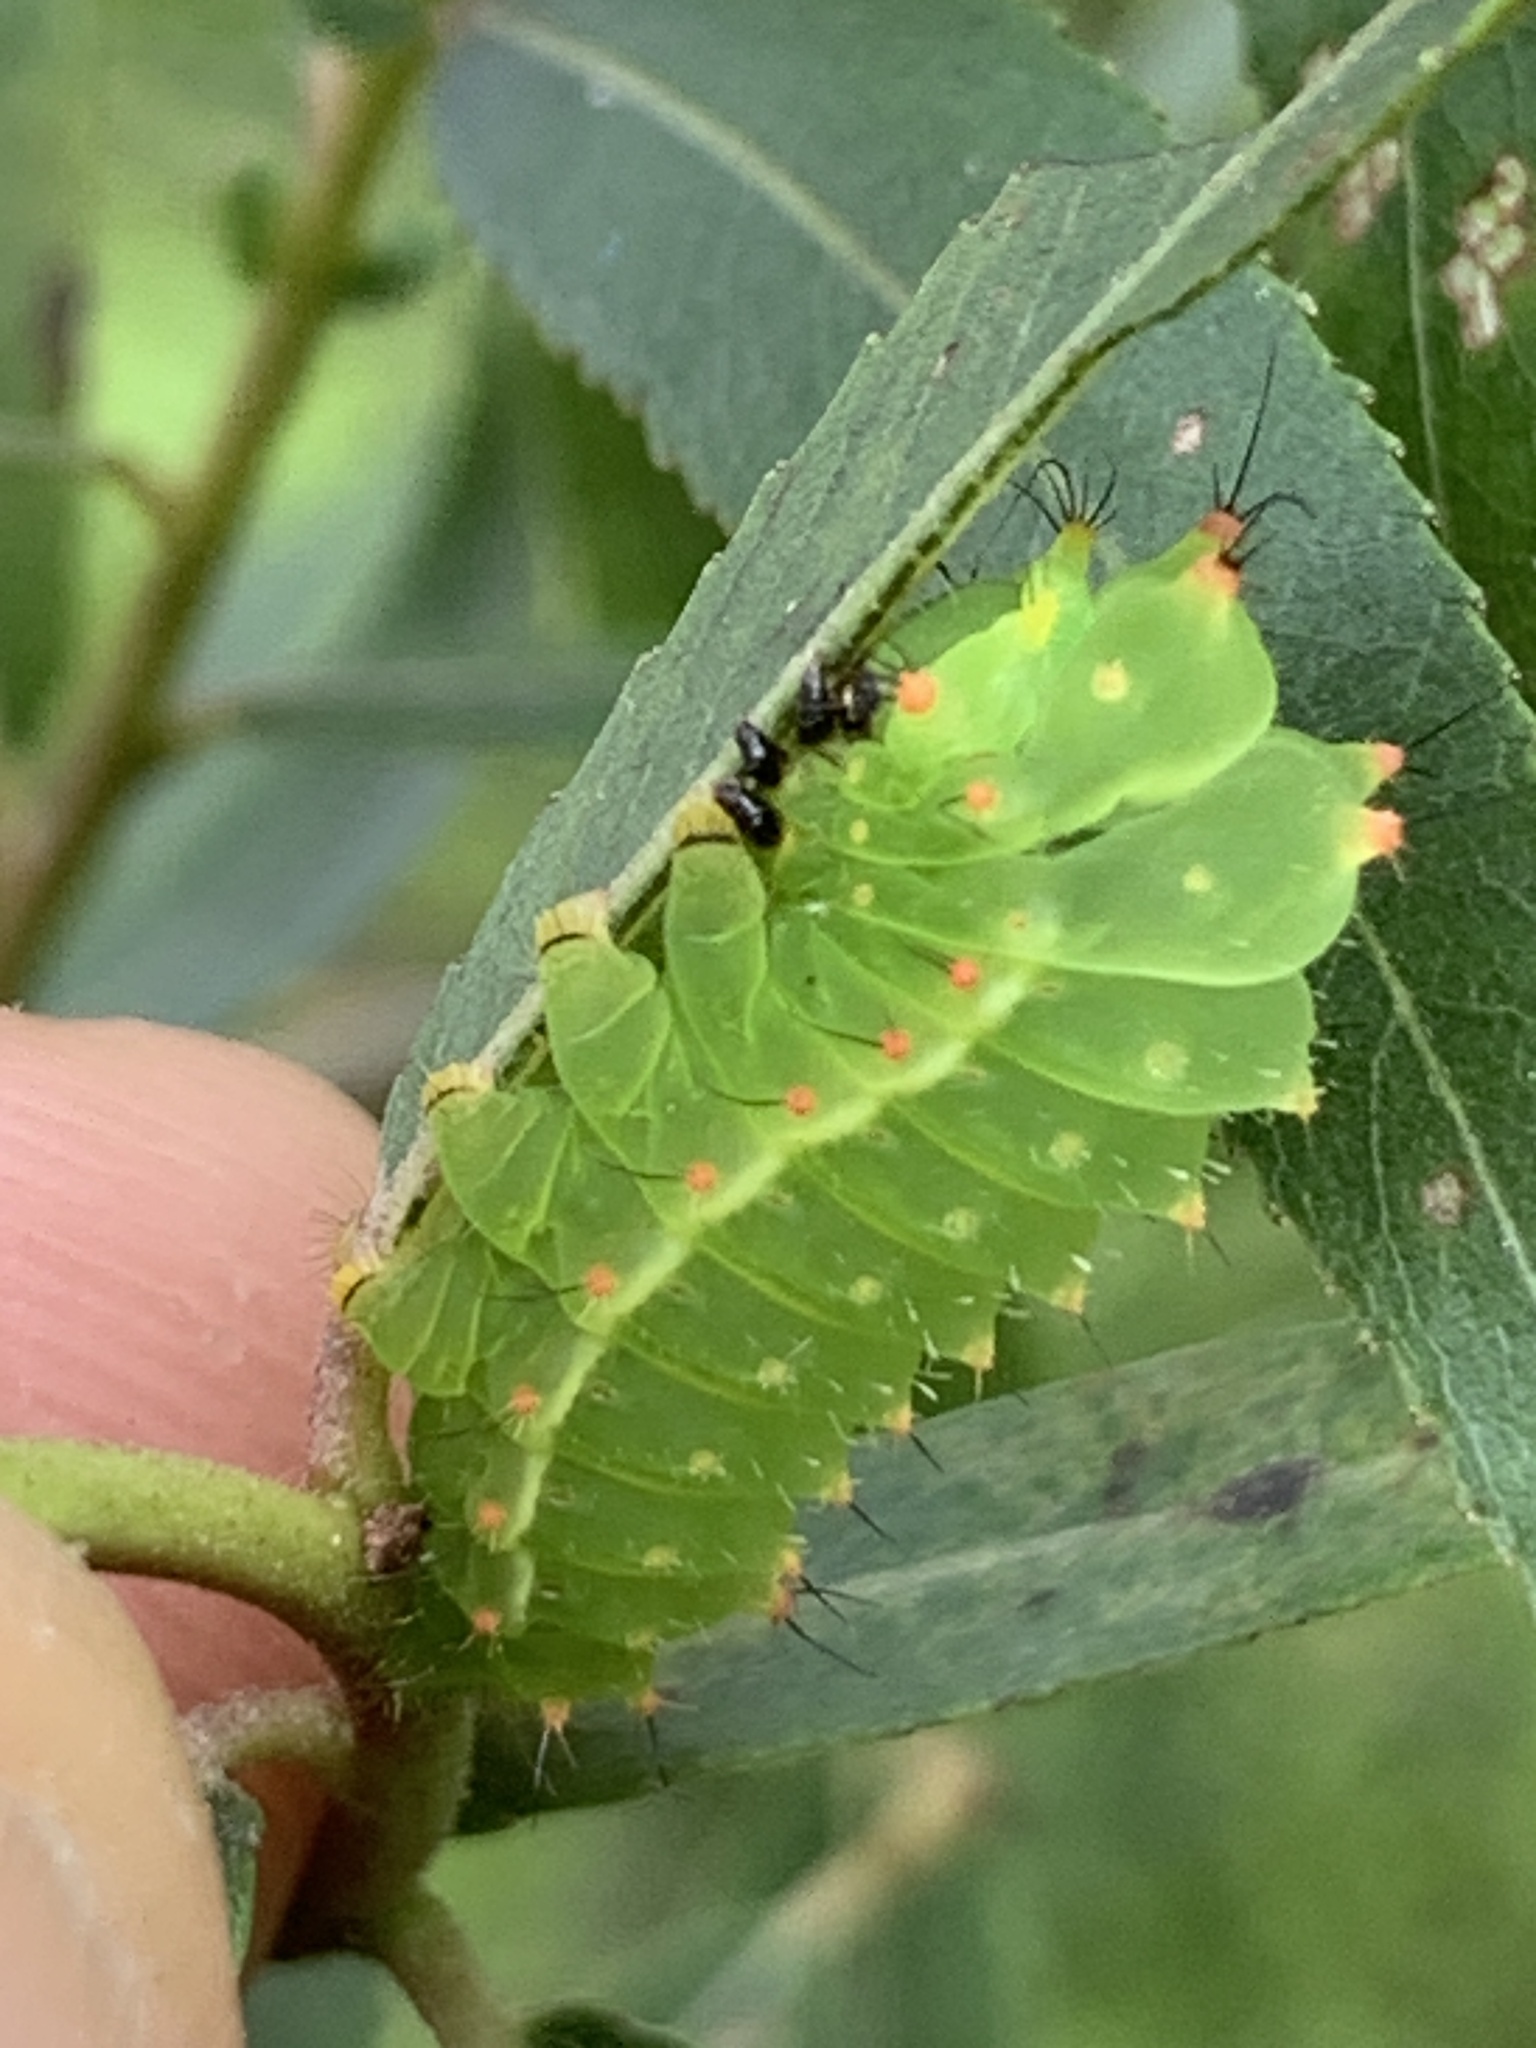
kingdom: Animalia
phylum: Arthropoda
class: Insecta
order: Lepidoptera
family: Saturniidae
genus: Actias
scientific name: Actias luna
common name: Luna moth
